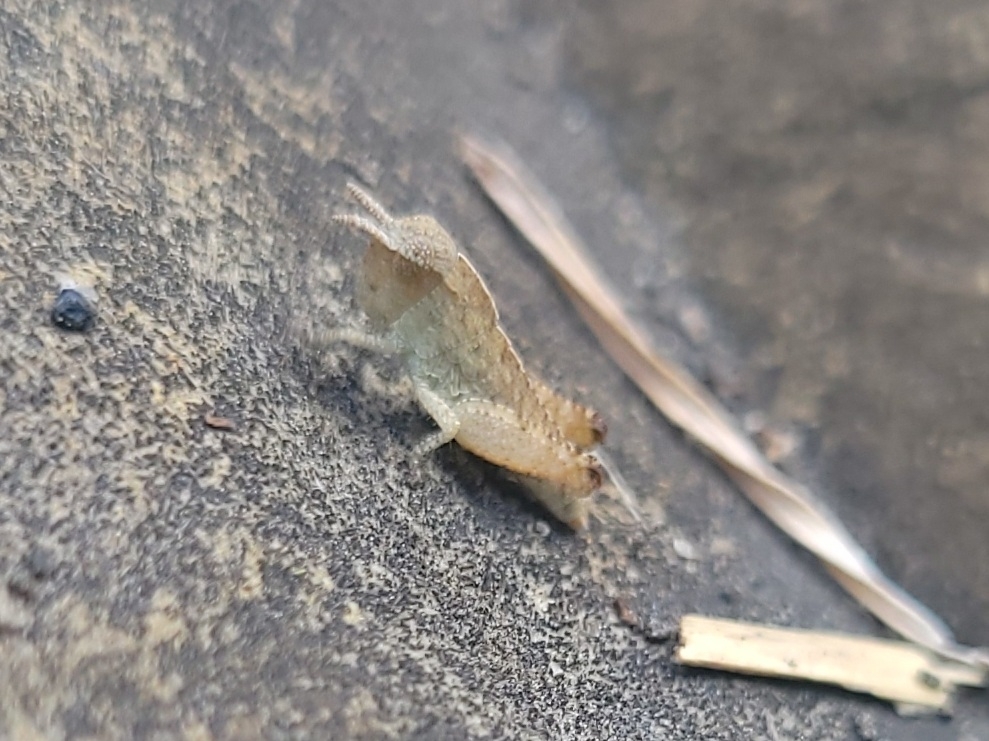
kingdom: Animalia
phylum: Arthropoda
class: Insecta
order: Orthoptera
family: Acrididae
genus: Chortophaga
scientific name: Chortophaga viridifasciata
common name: Green-striped grasshopper
